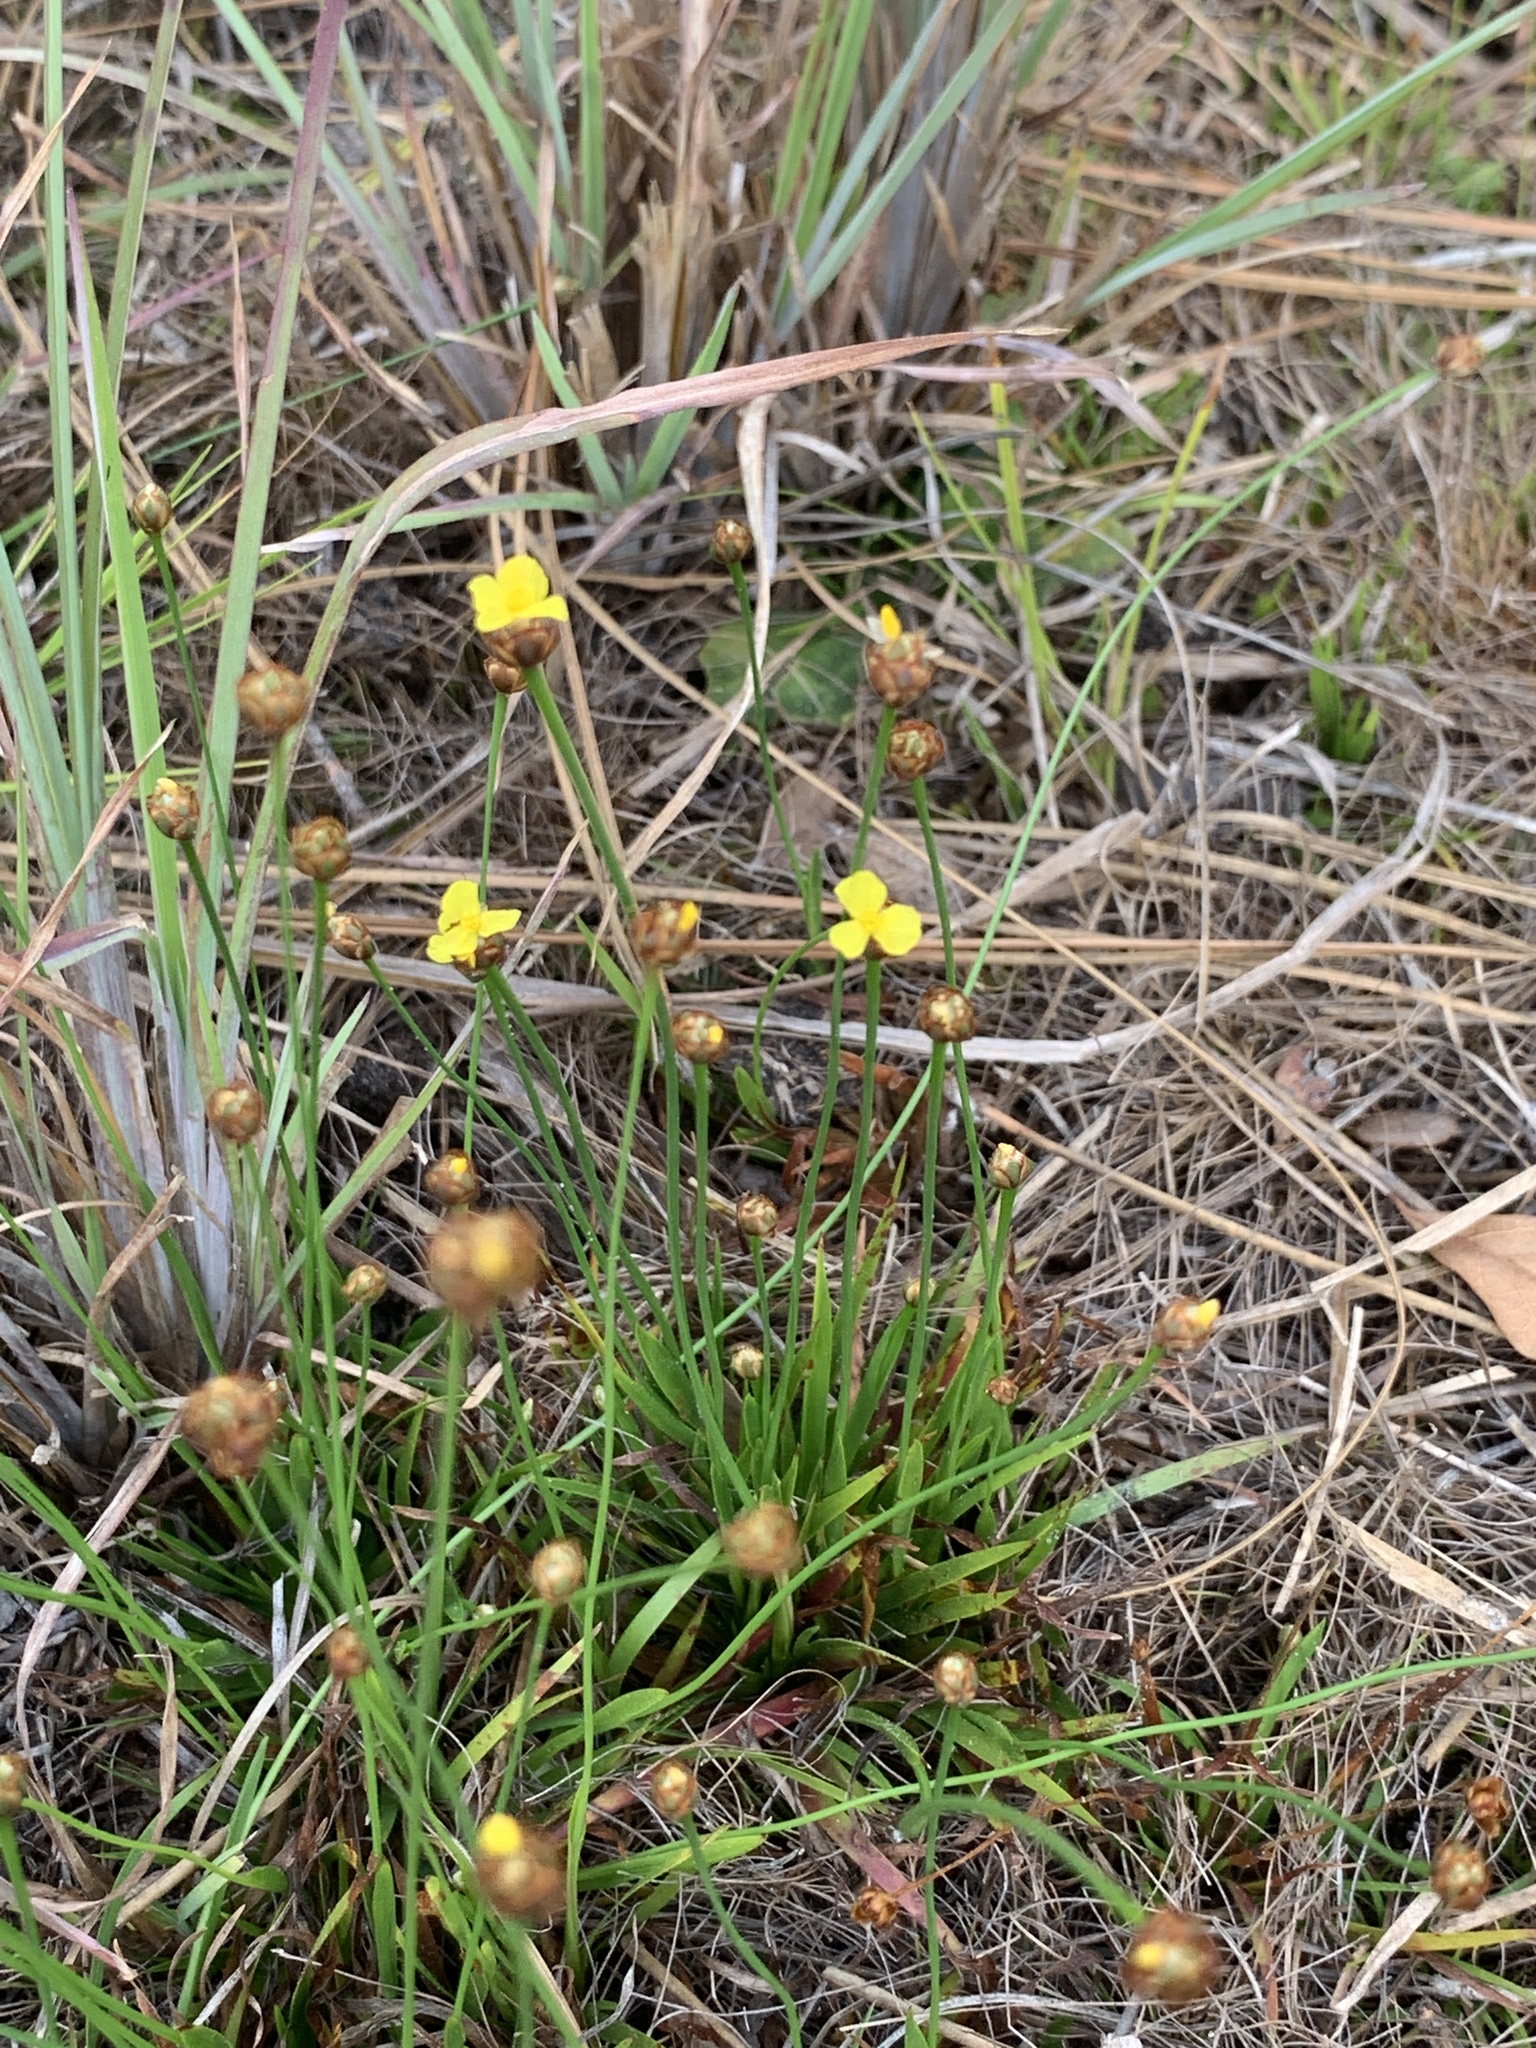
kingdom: Plantae
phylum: Tracheophyta
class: Liliopsida
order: Poales
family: Xyridaceae
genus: Xyris
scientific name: Xyris brevifolia
